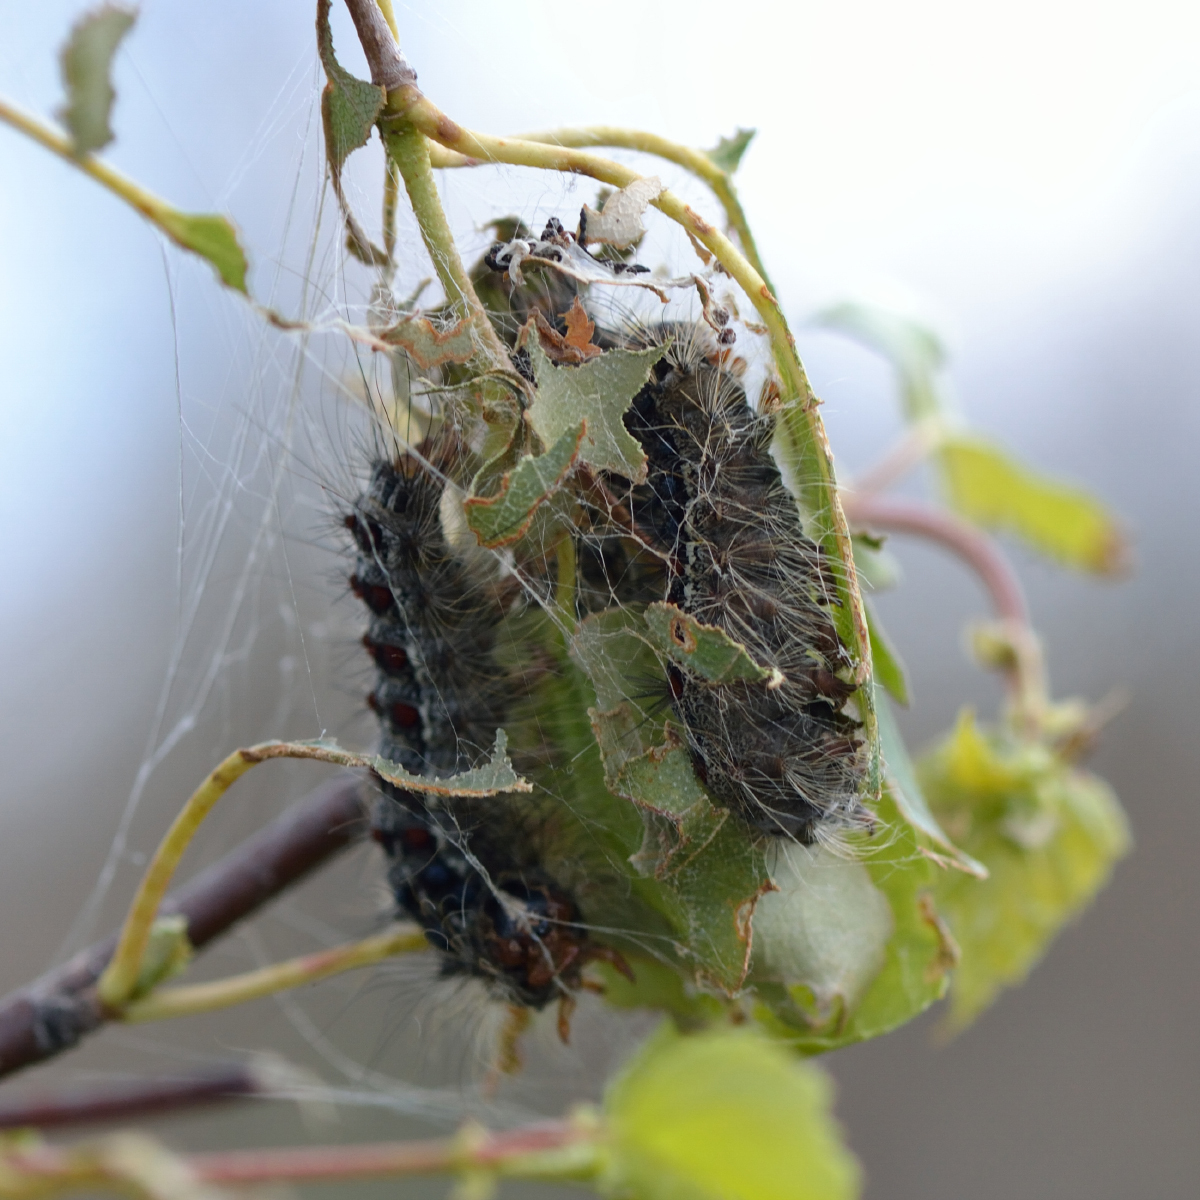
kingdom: Animalia
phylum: Arthropoda
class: Insecta
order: Lepidoptera
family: Erebidae
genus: Lymantria
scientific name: Lymantria dispar
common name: Gypsy moth
